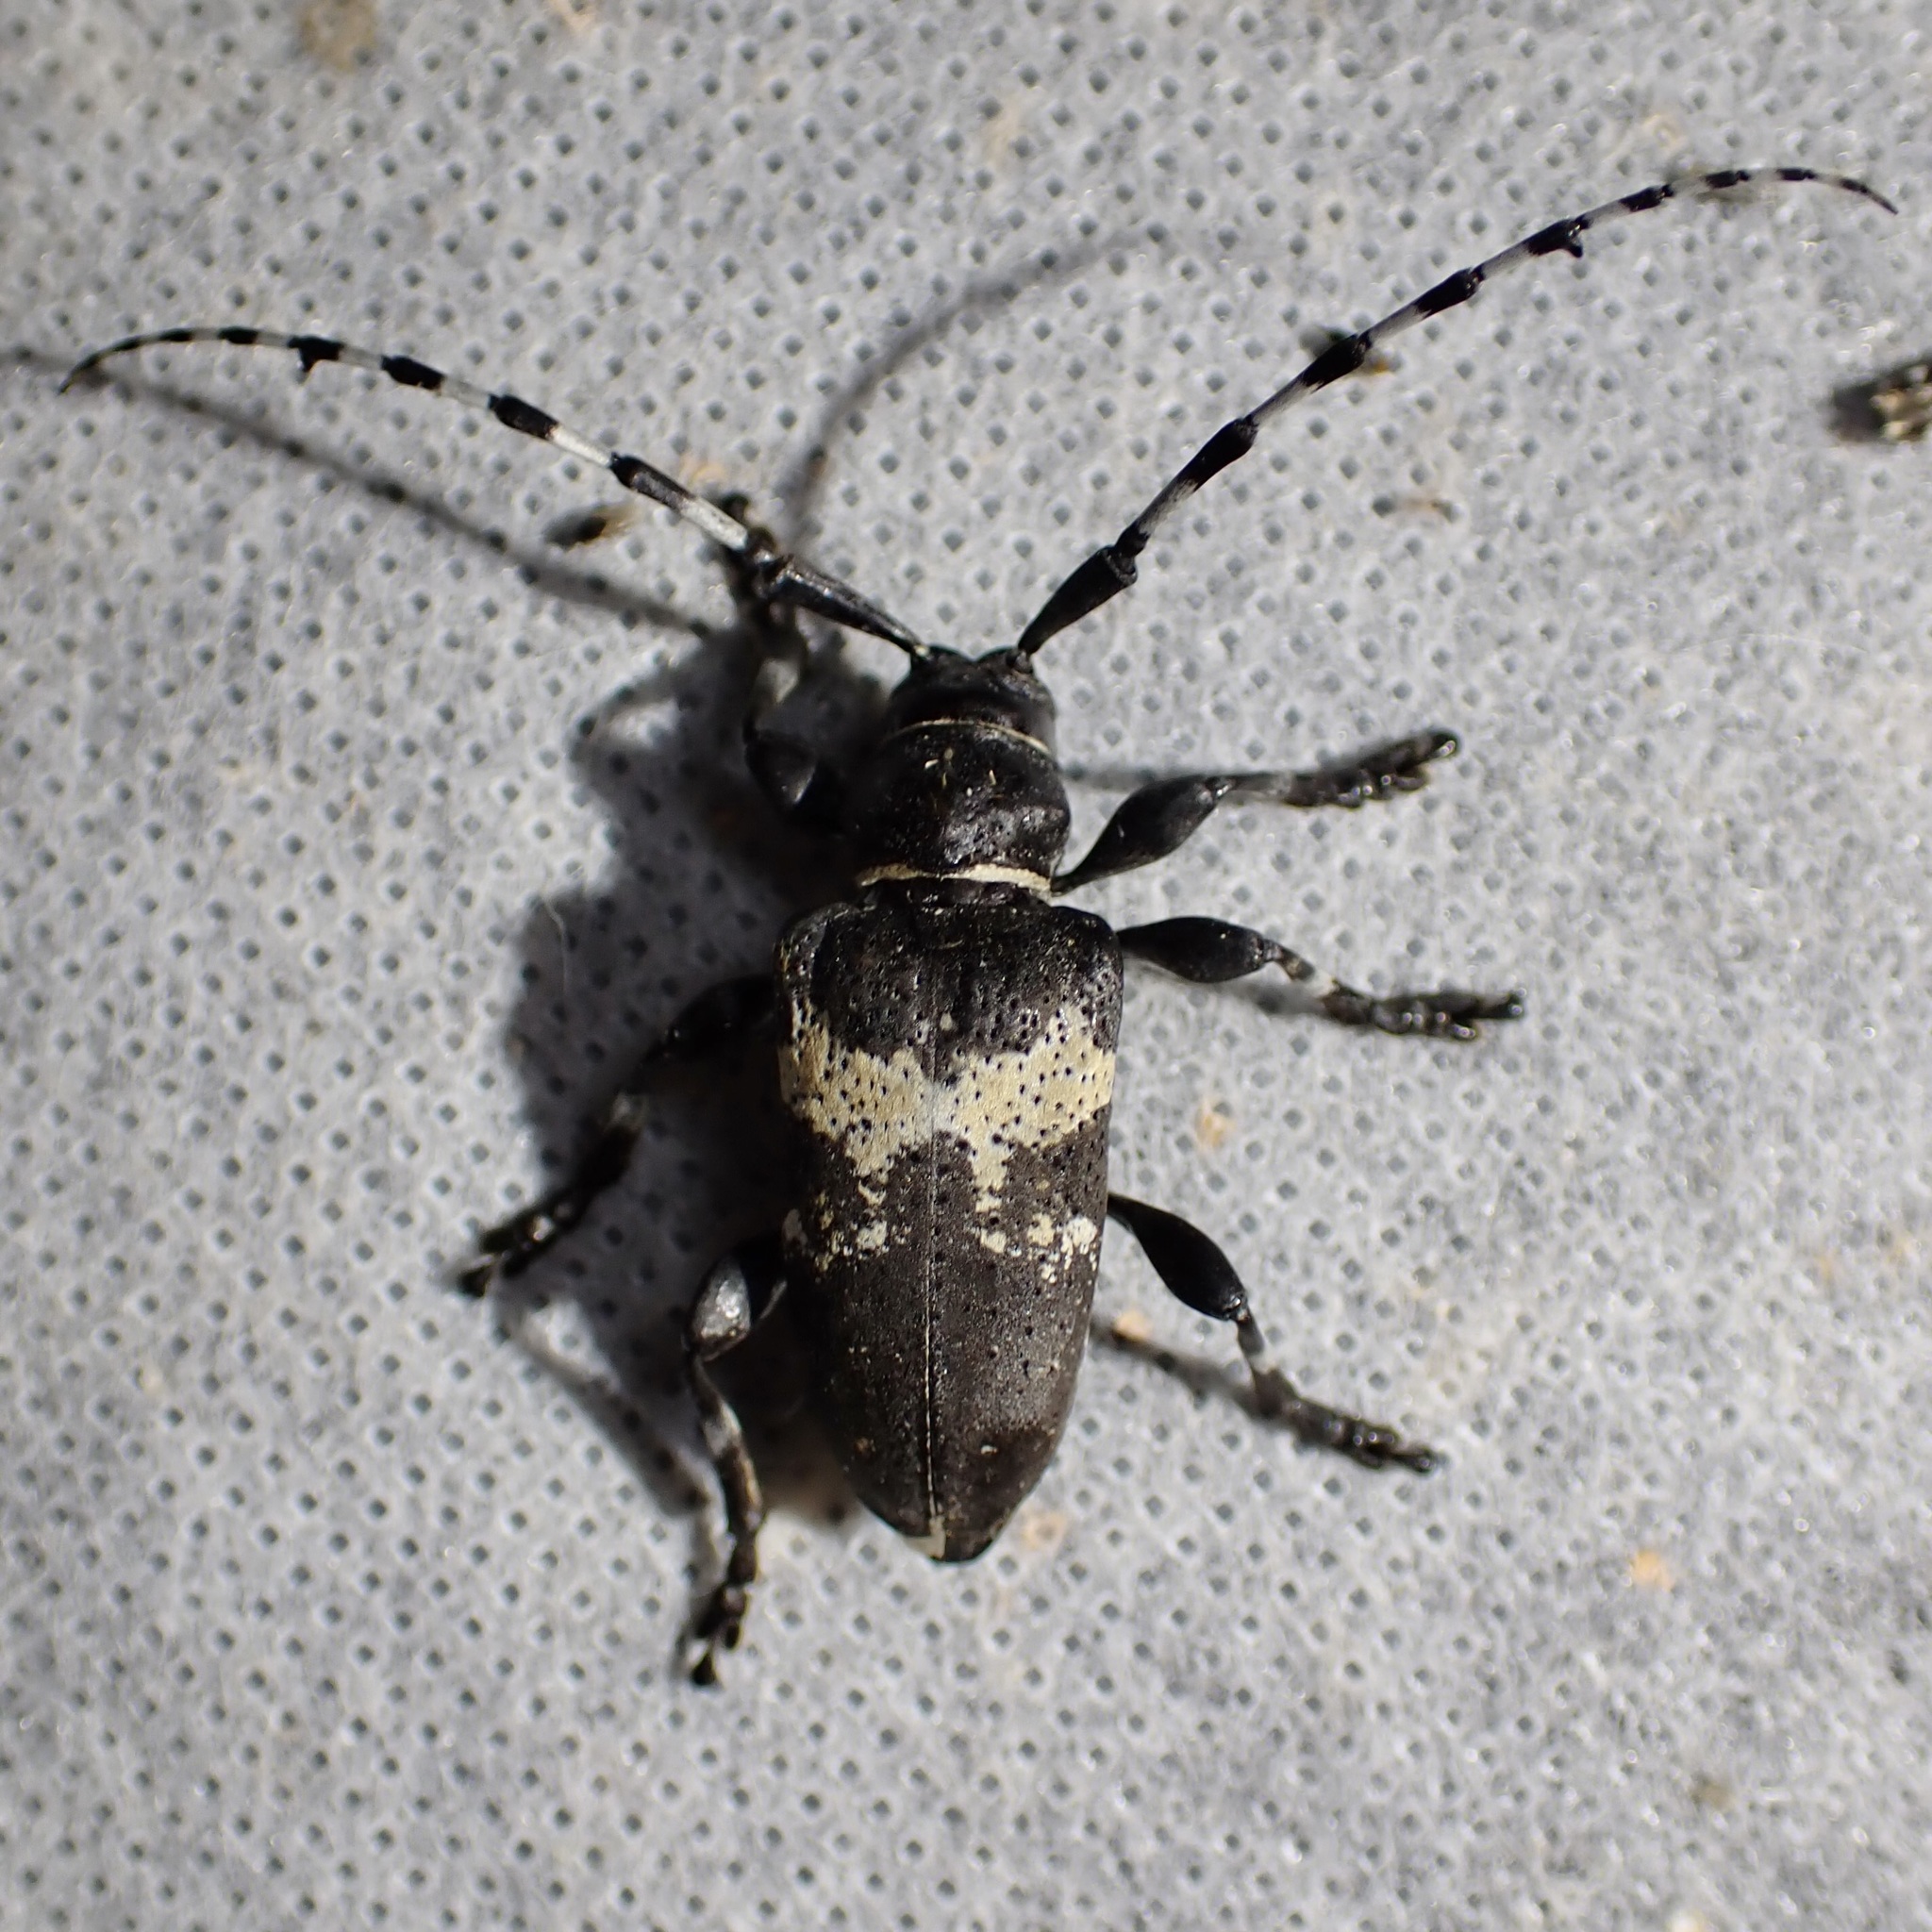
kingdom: Animalia
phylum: Arthropoda
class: Insecta
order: Coleoptera
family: Cerambycidae
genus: Coenopoeus
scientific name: Coenopoeus palmeri
